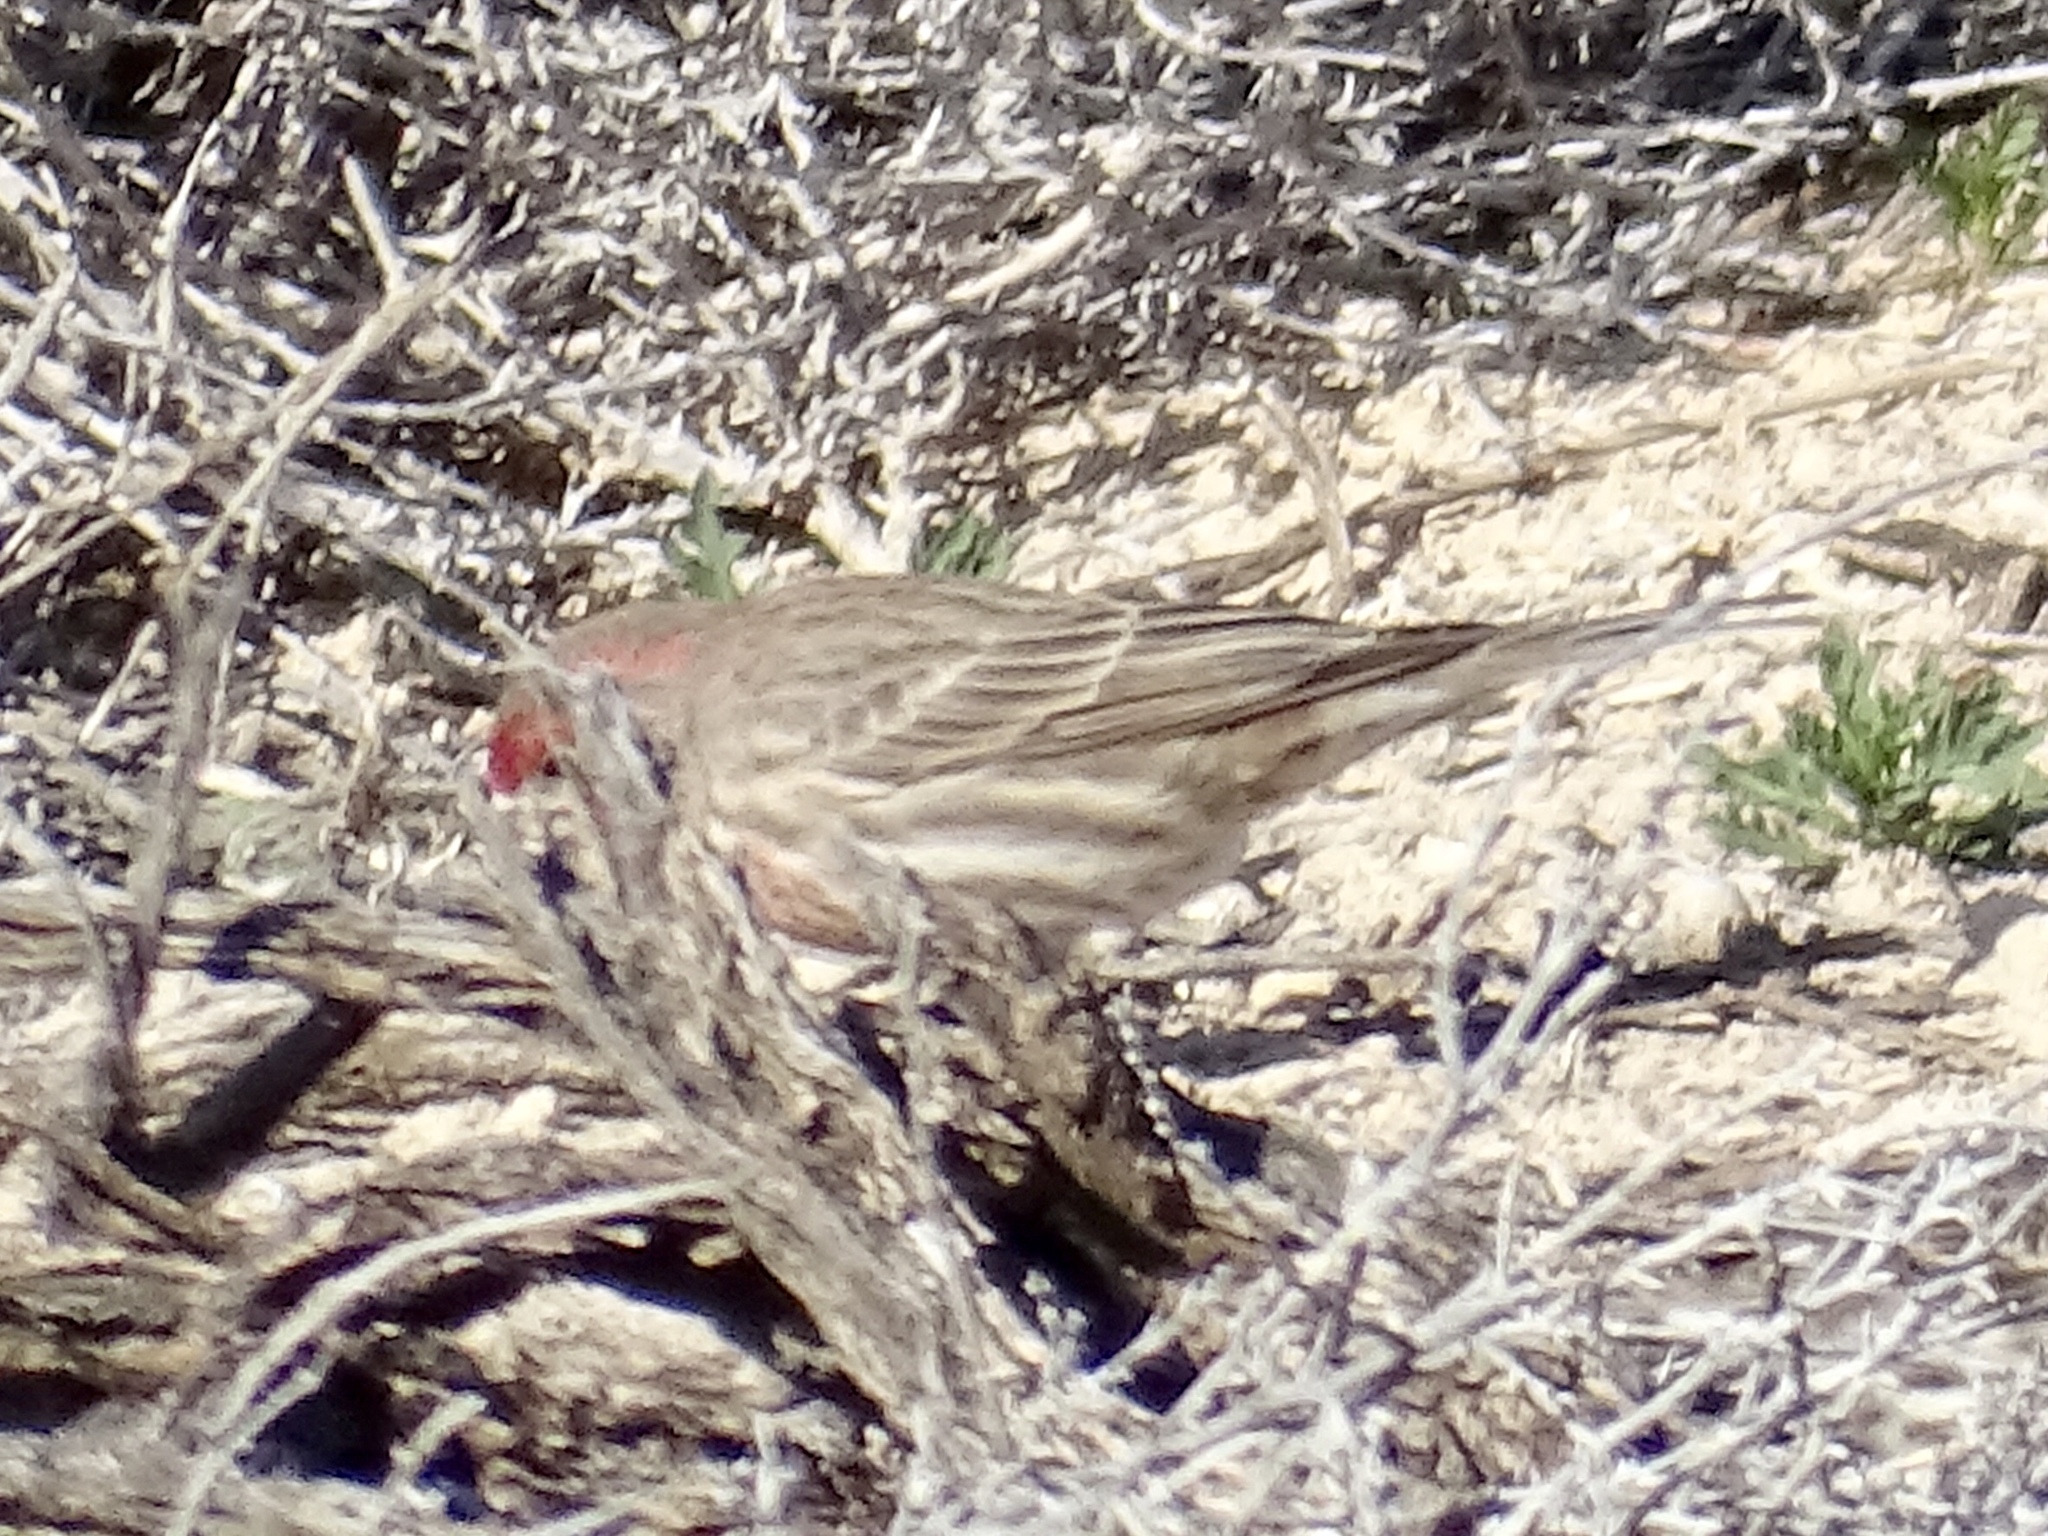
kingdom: Animalia
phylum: Chordata
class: Aves
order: Passeriformes
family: Fringillidae
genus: Haemorhous
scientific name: Haemorhous mexicanus
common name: House finch
